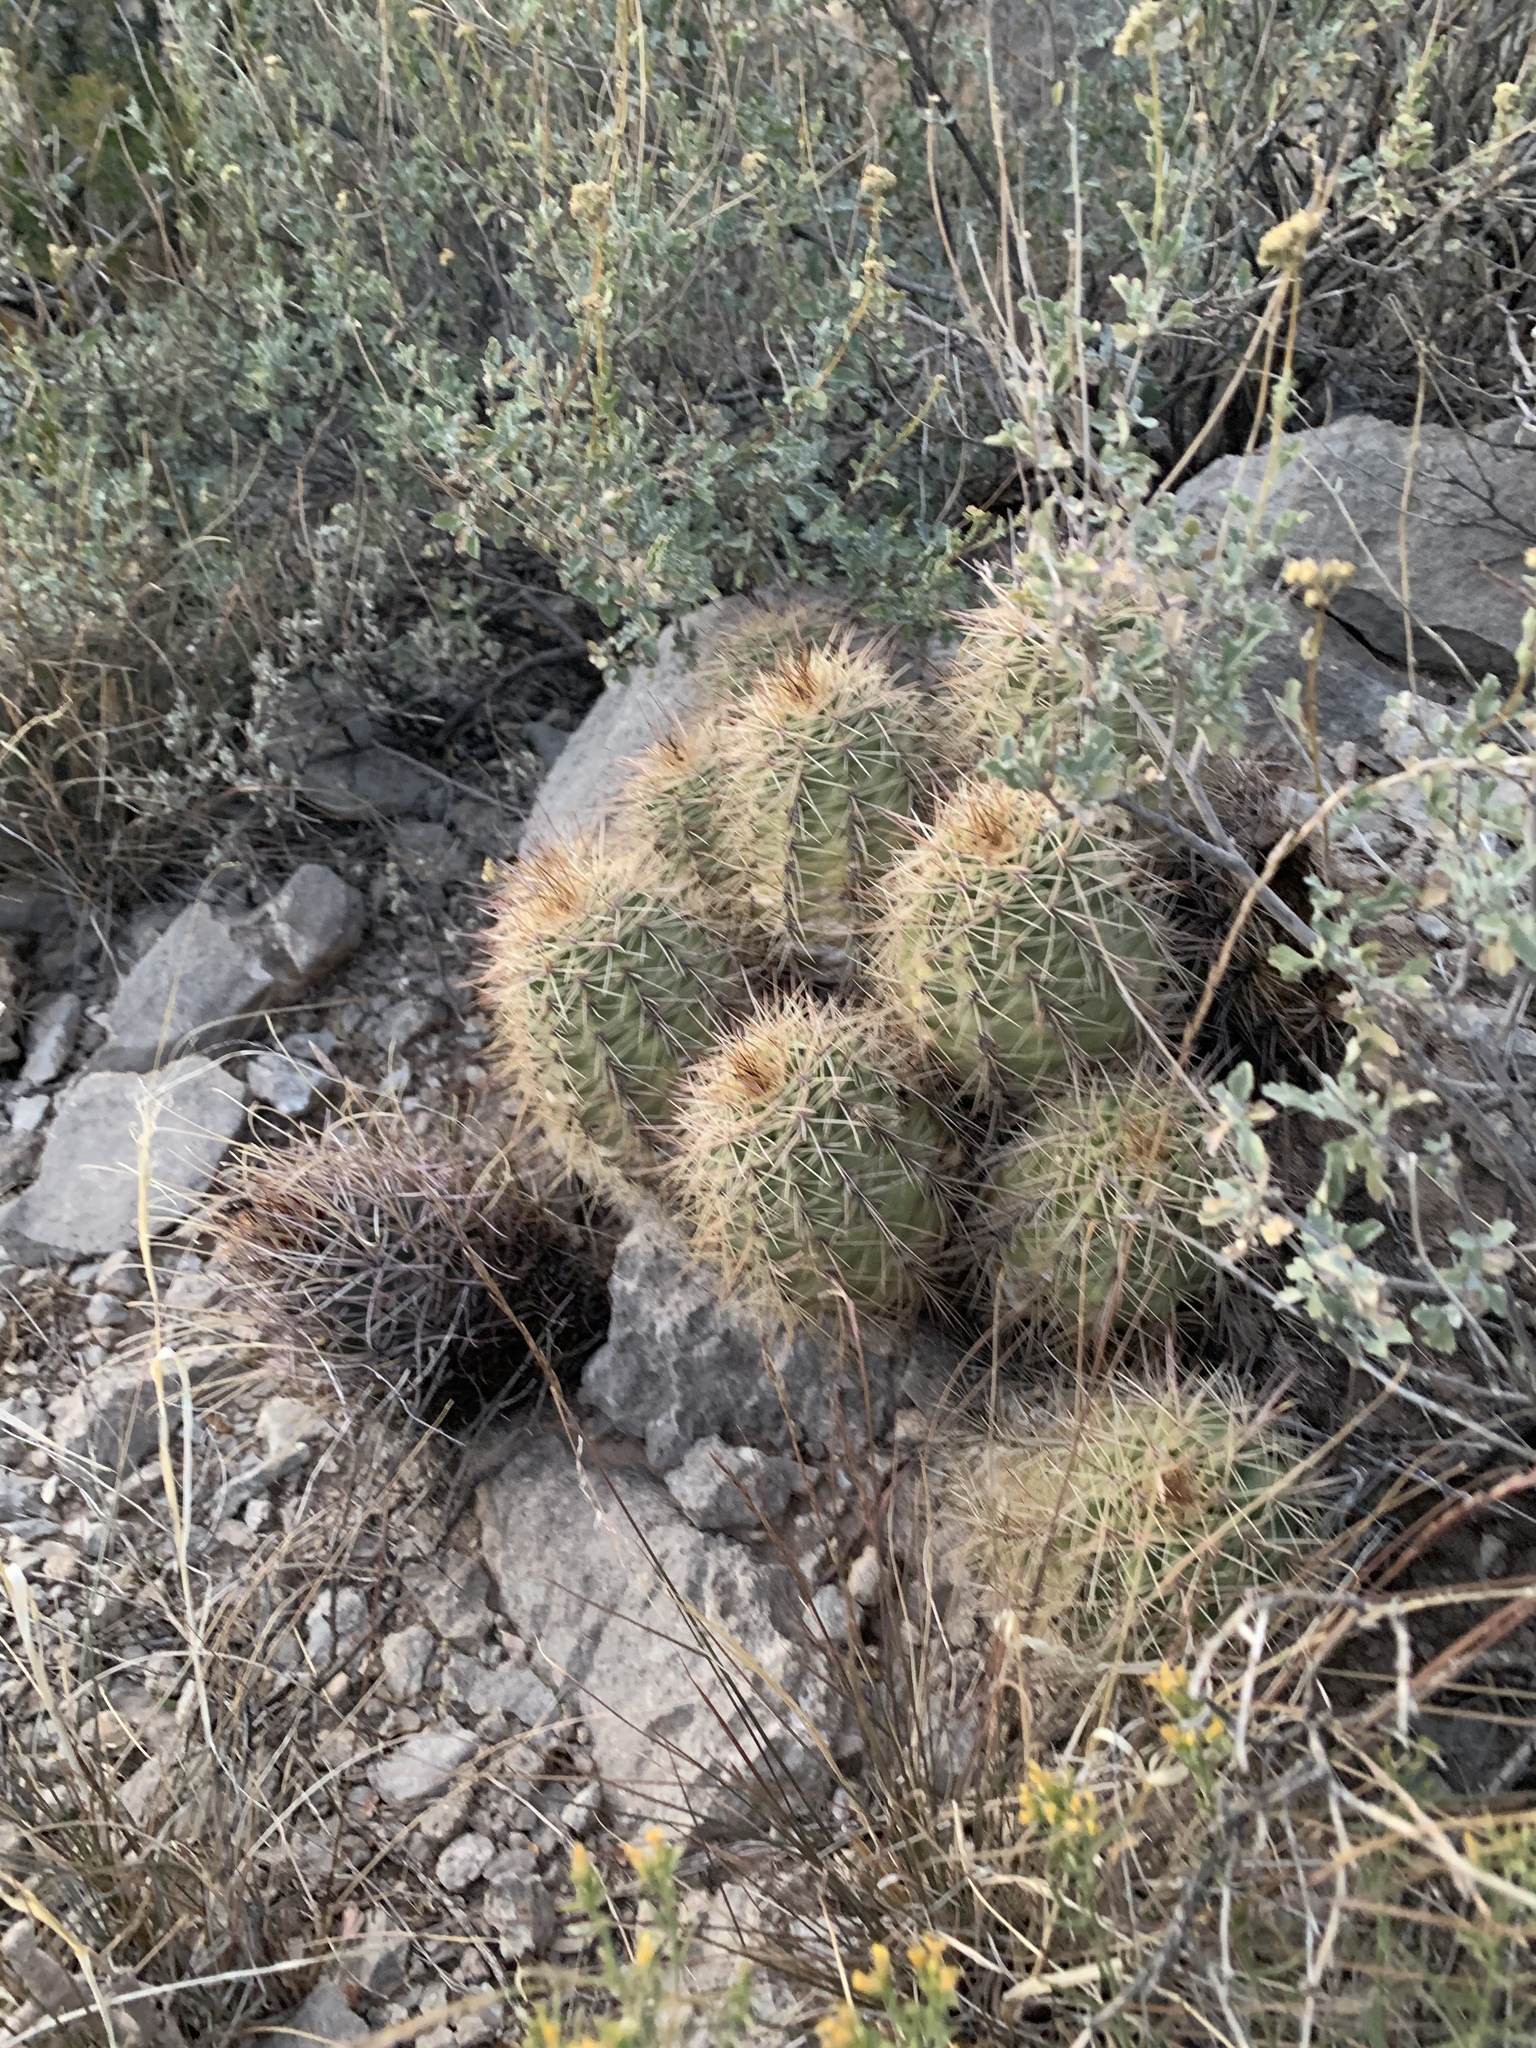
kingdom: Plantae
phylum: Tracheophyta
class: Magnoliopsida
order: Caryophyllales
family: Cactaceae
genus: Ferocactus
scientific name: Ferocactus uncinatus
